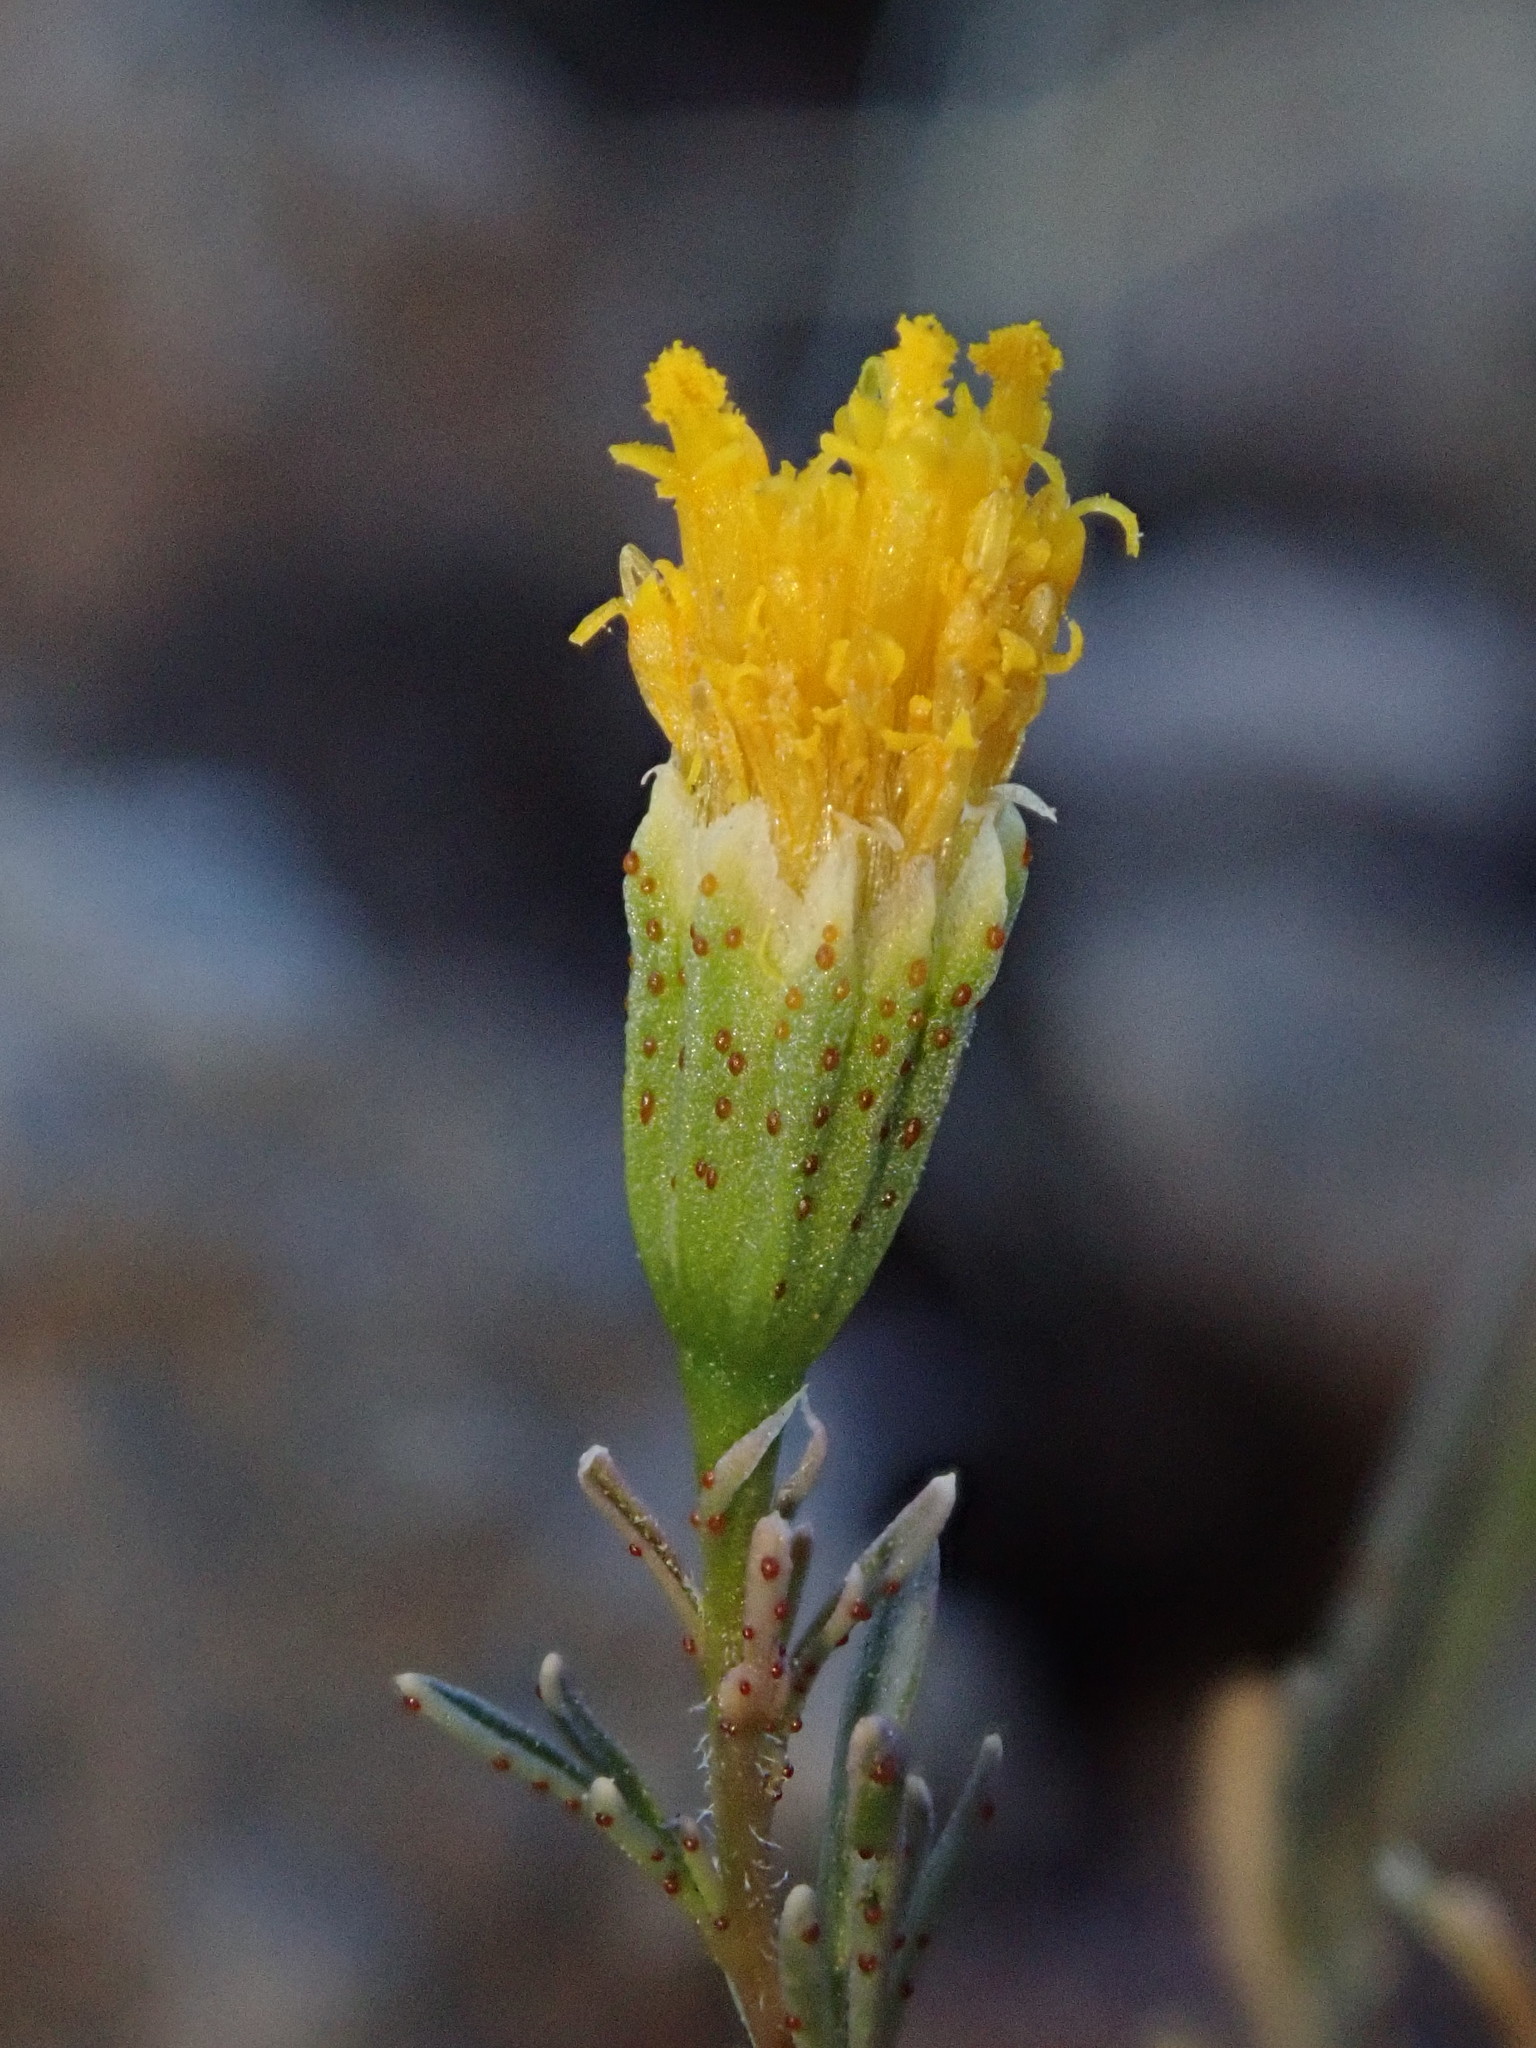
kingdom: Plantae
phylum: Tracheophyta
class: Magnoliopsida
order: Asterales
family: Asteraceae
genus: Thymophylla
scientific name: Thymophylla concinna
